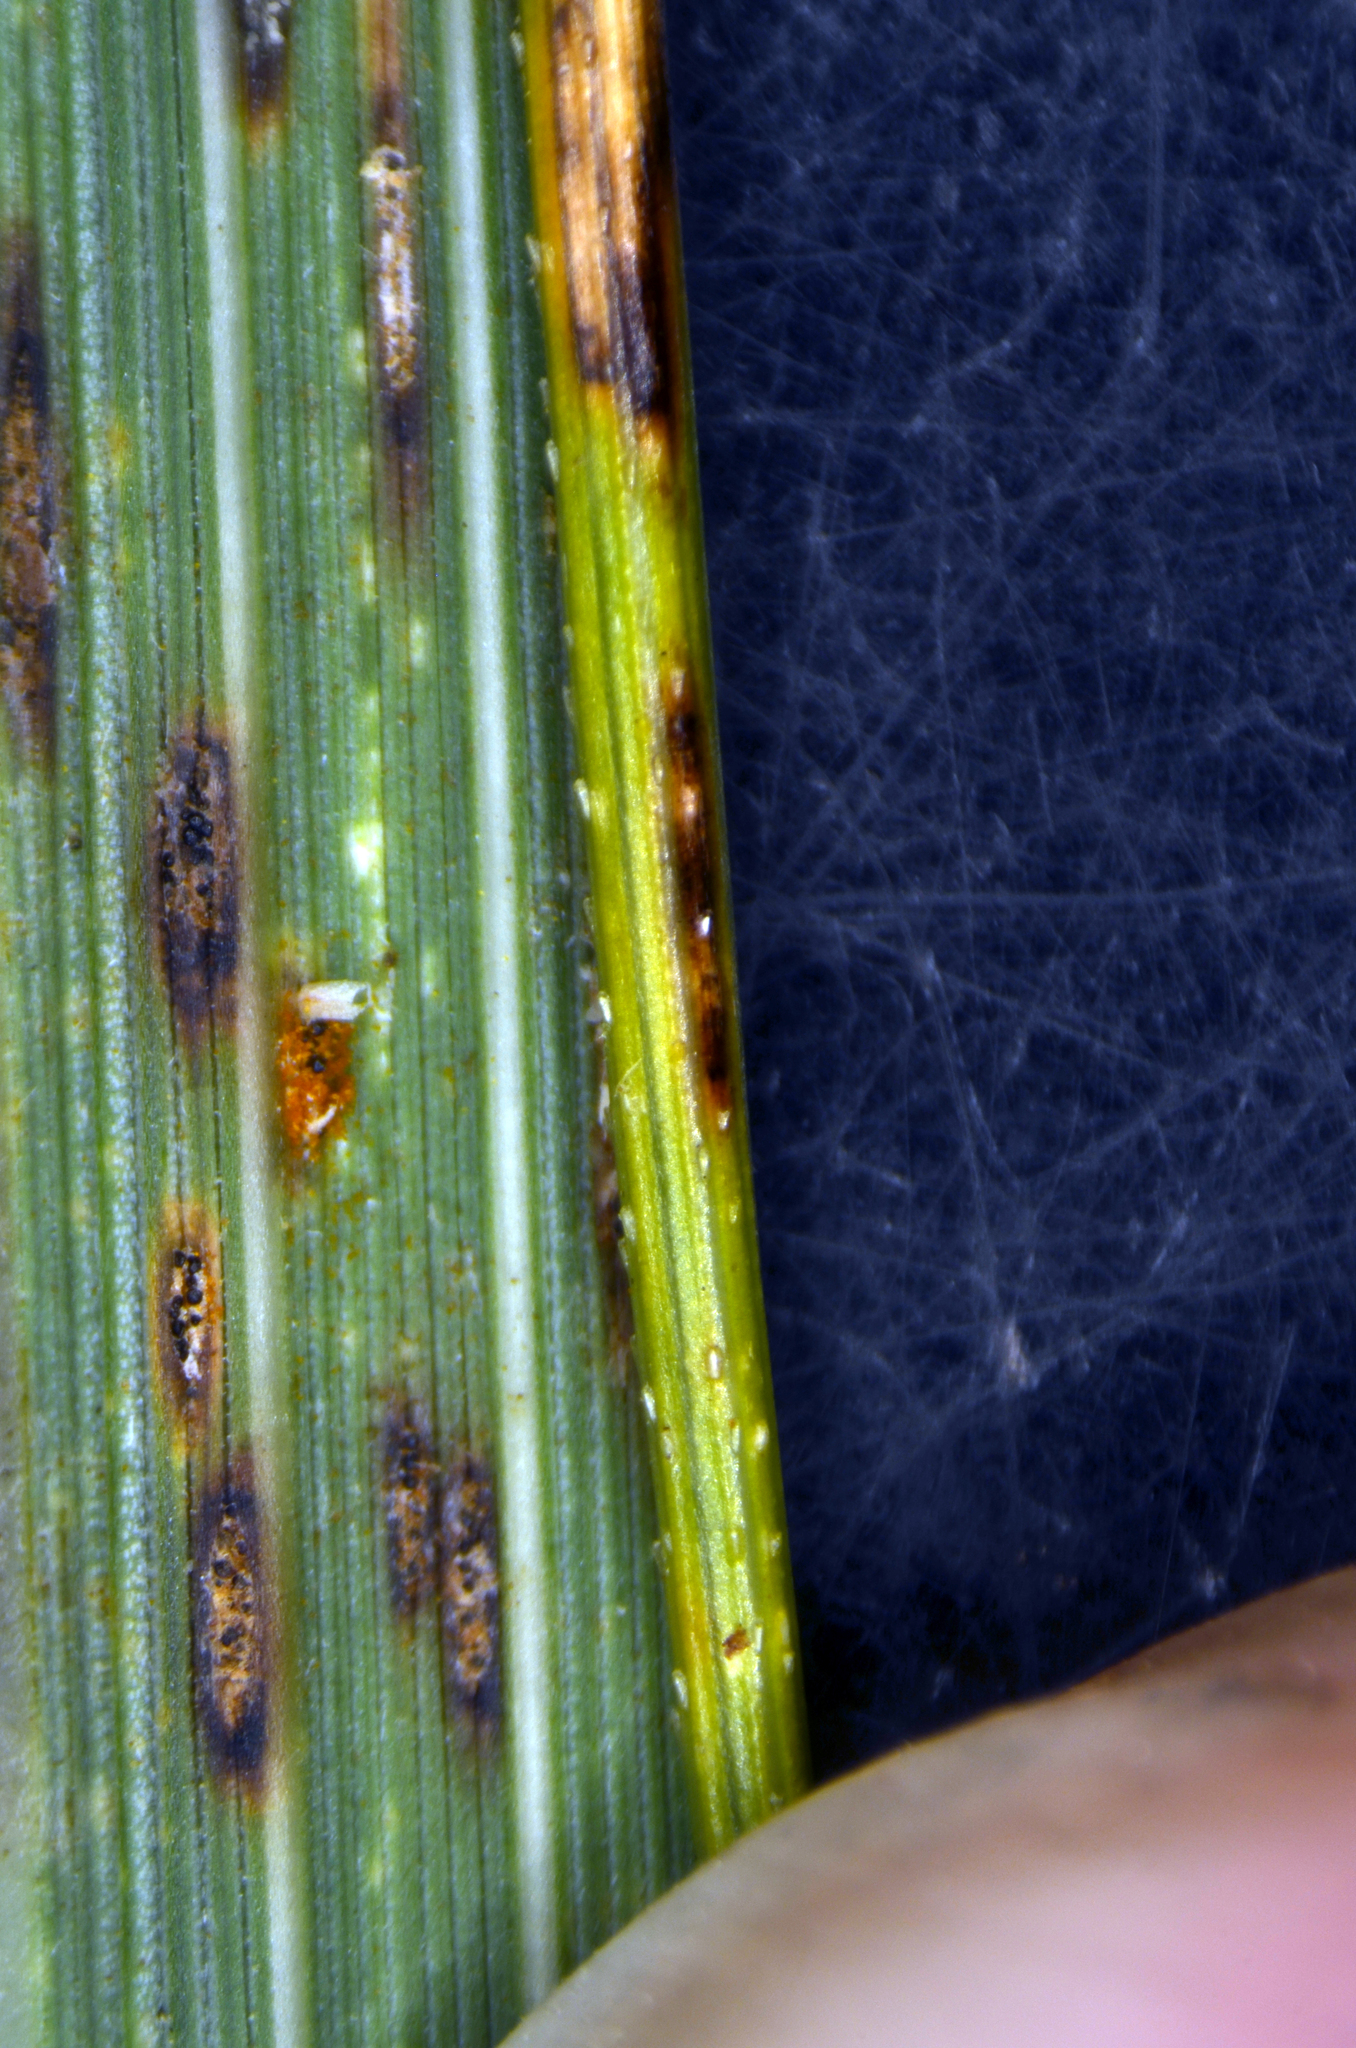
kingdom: Fungi
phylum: Ascomycota
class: Dothideomycetes
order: Pleosporales
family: Phaeosphaeriaceae
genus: Sphaerellopsis
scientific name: Sphaerellopsis filum
